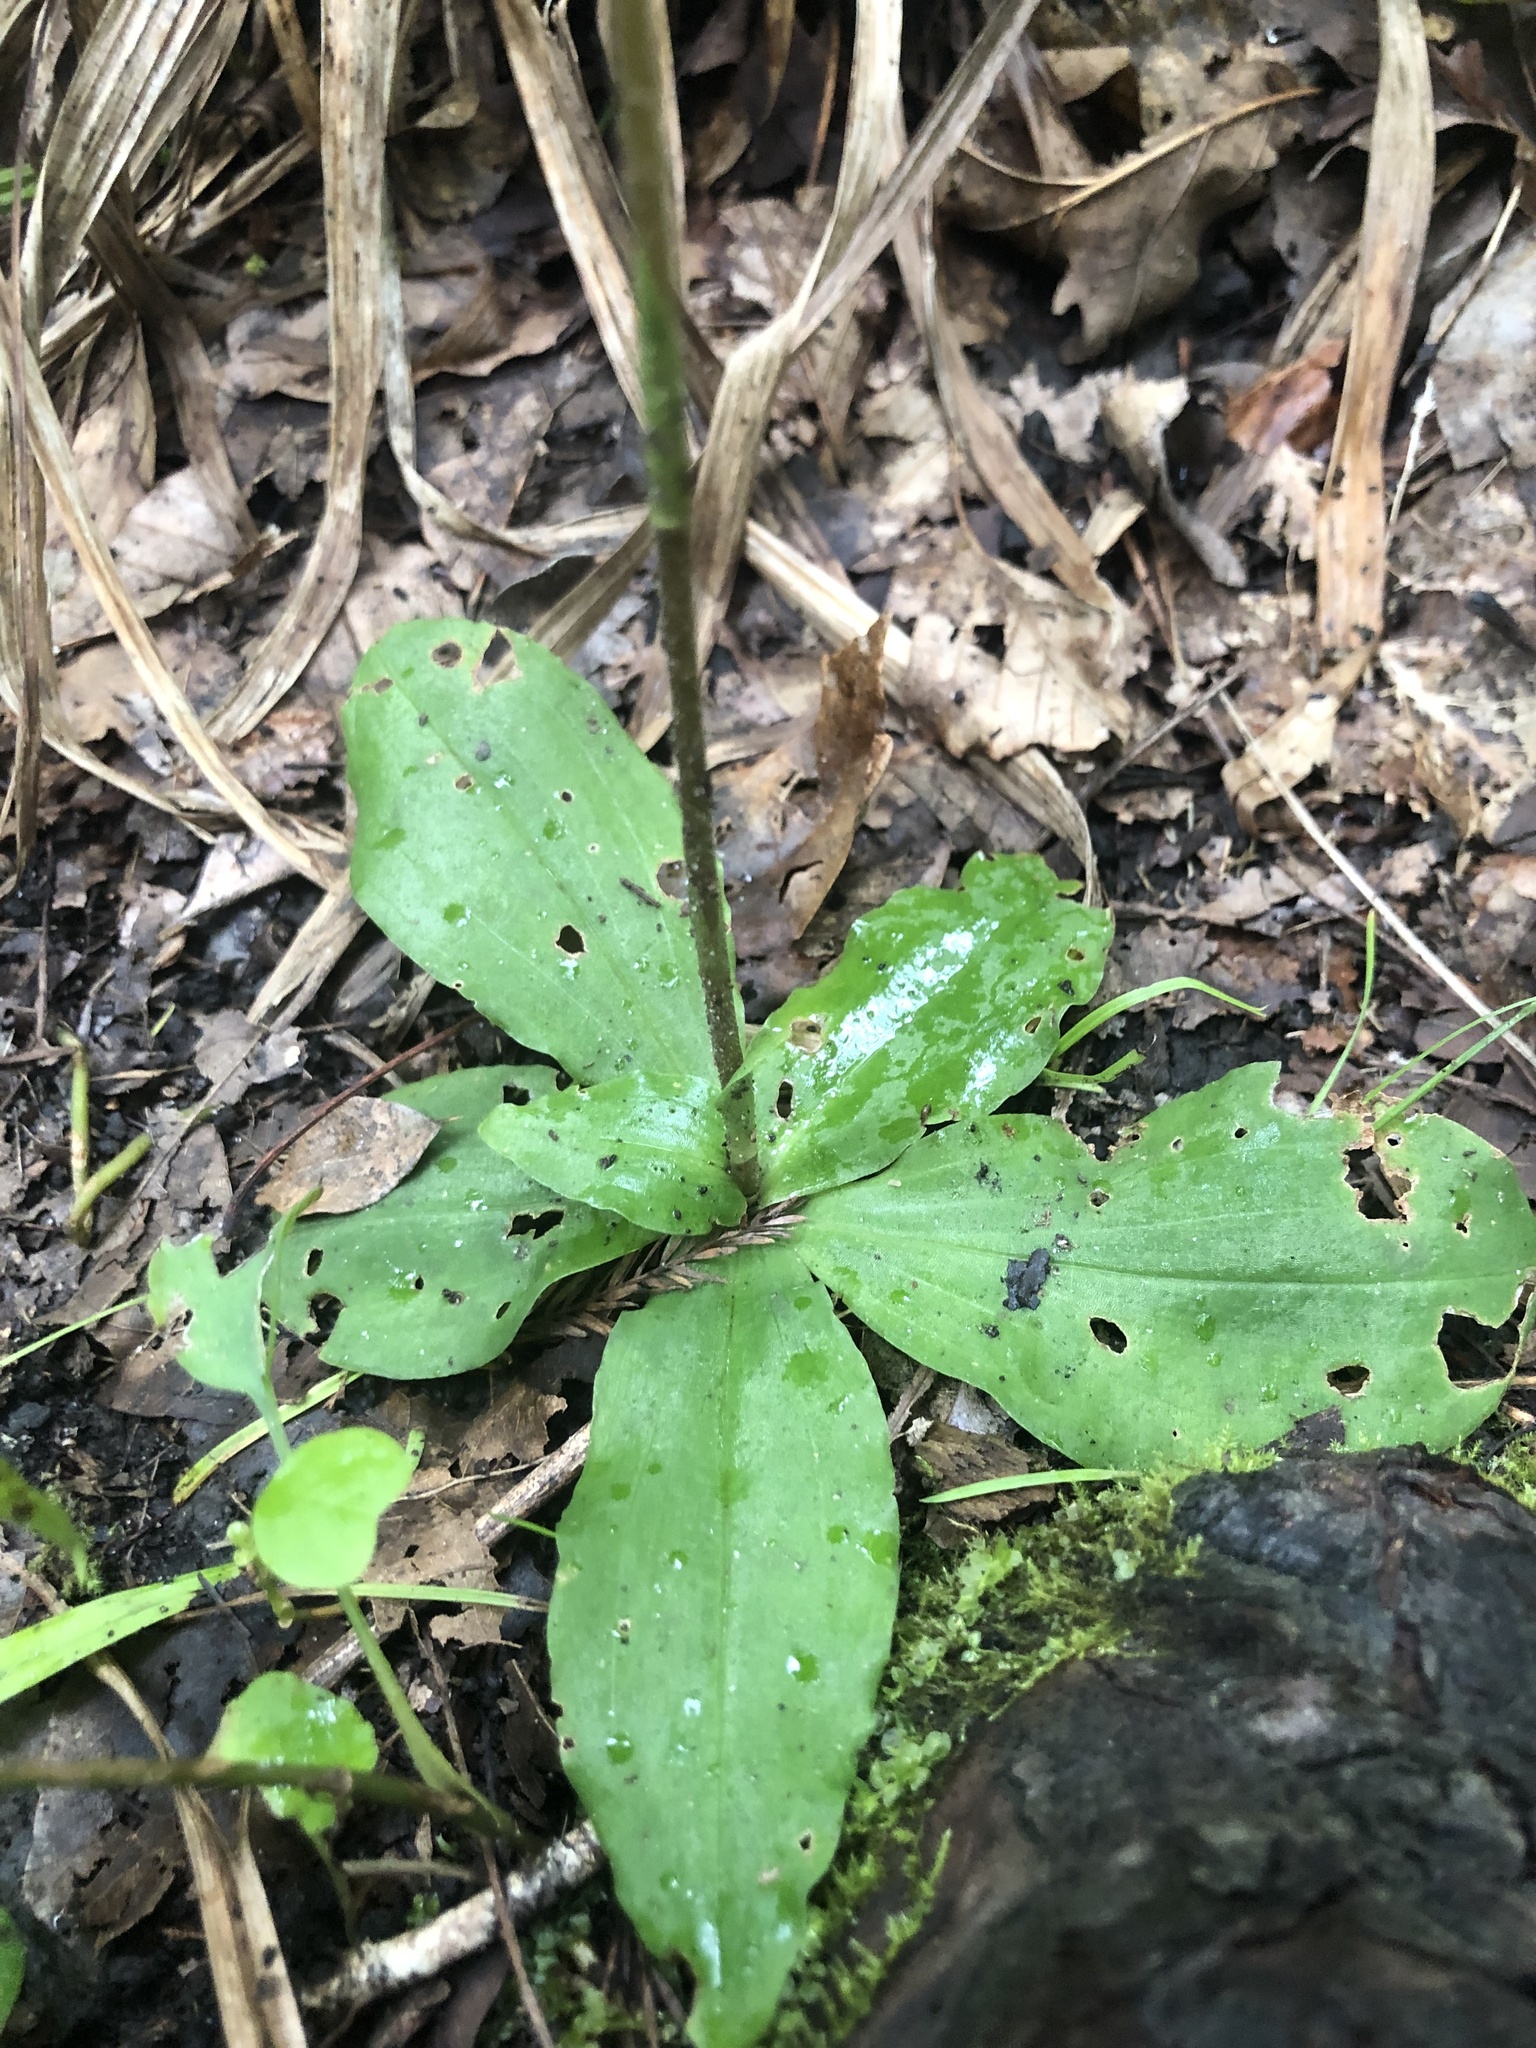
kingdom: Plantae
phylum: Tracheophyta
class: Liliopsida
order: Asparagales
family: Orchidaceae
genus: Ponthieva
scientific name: Ponthieva racemosa
